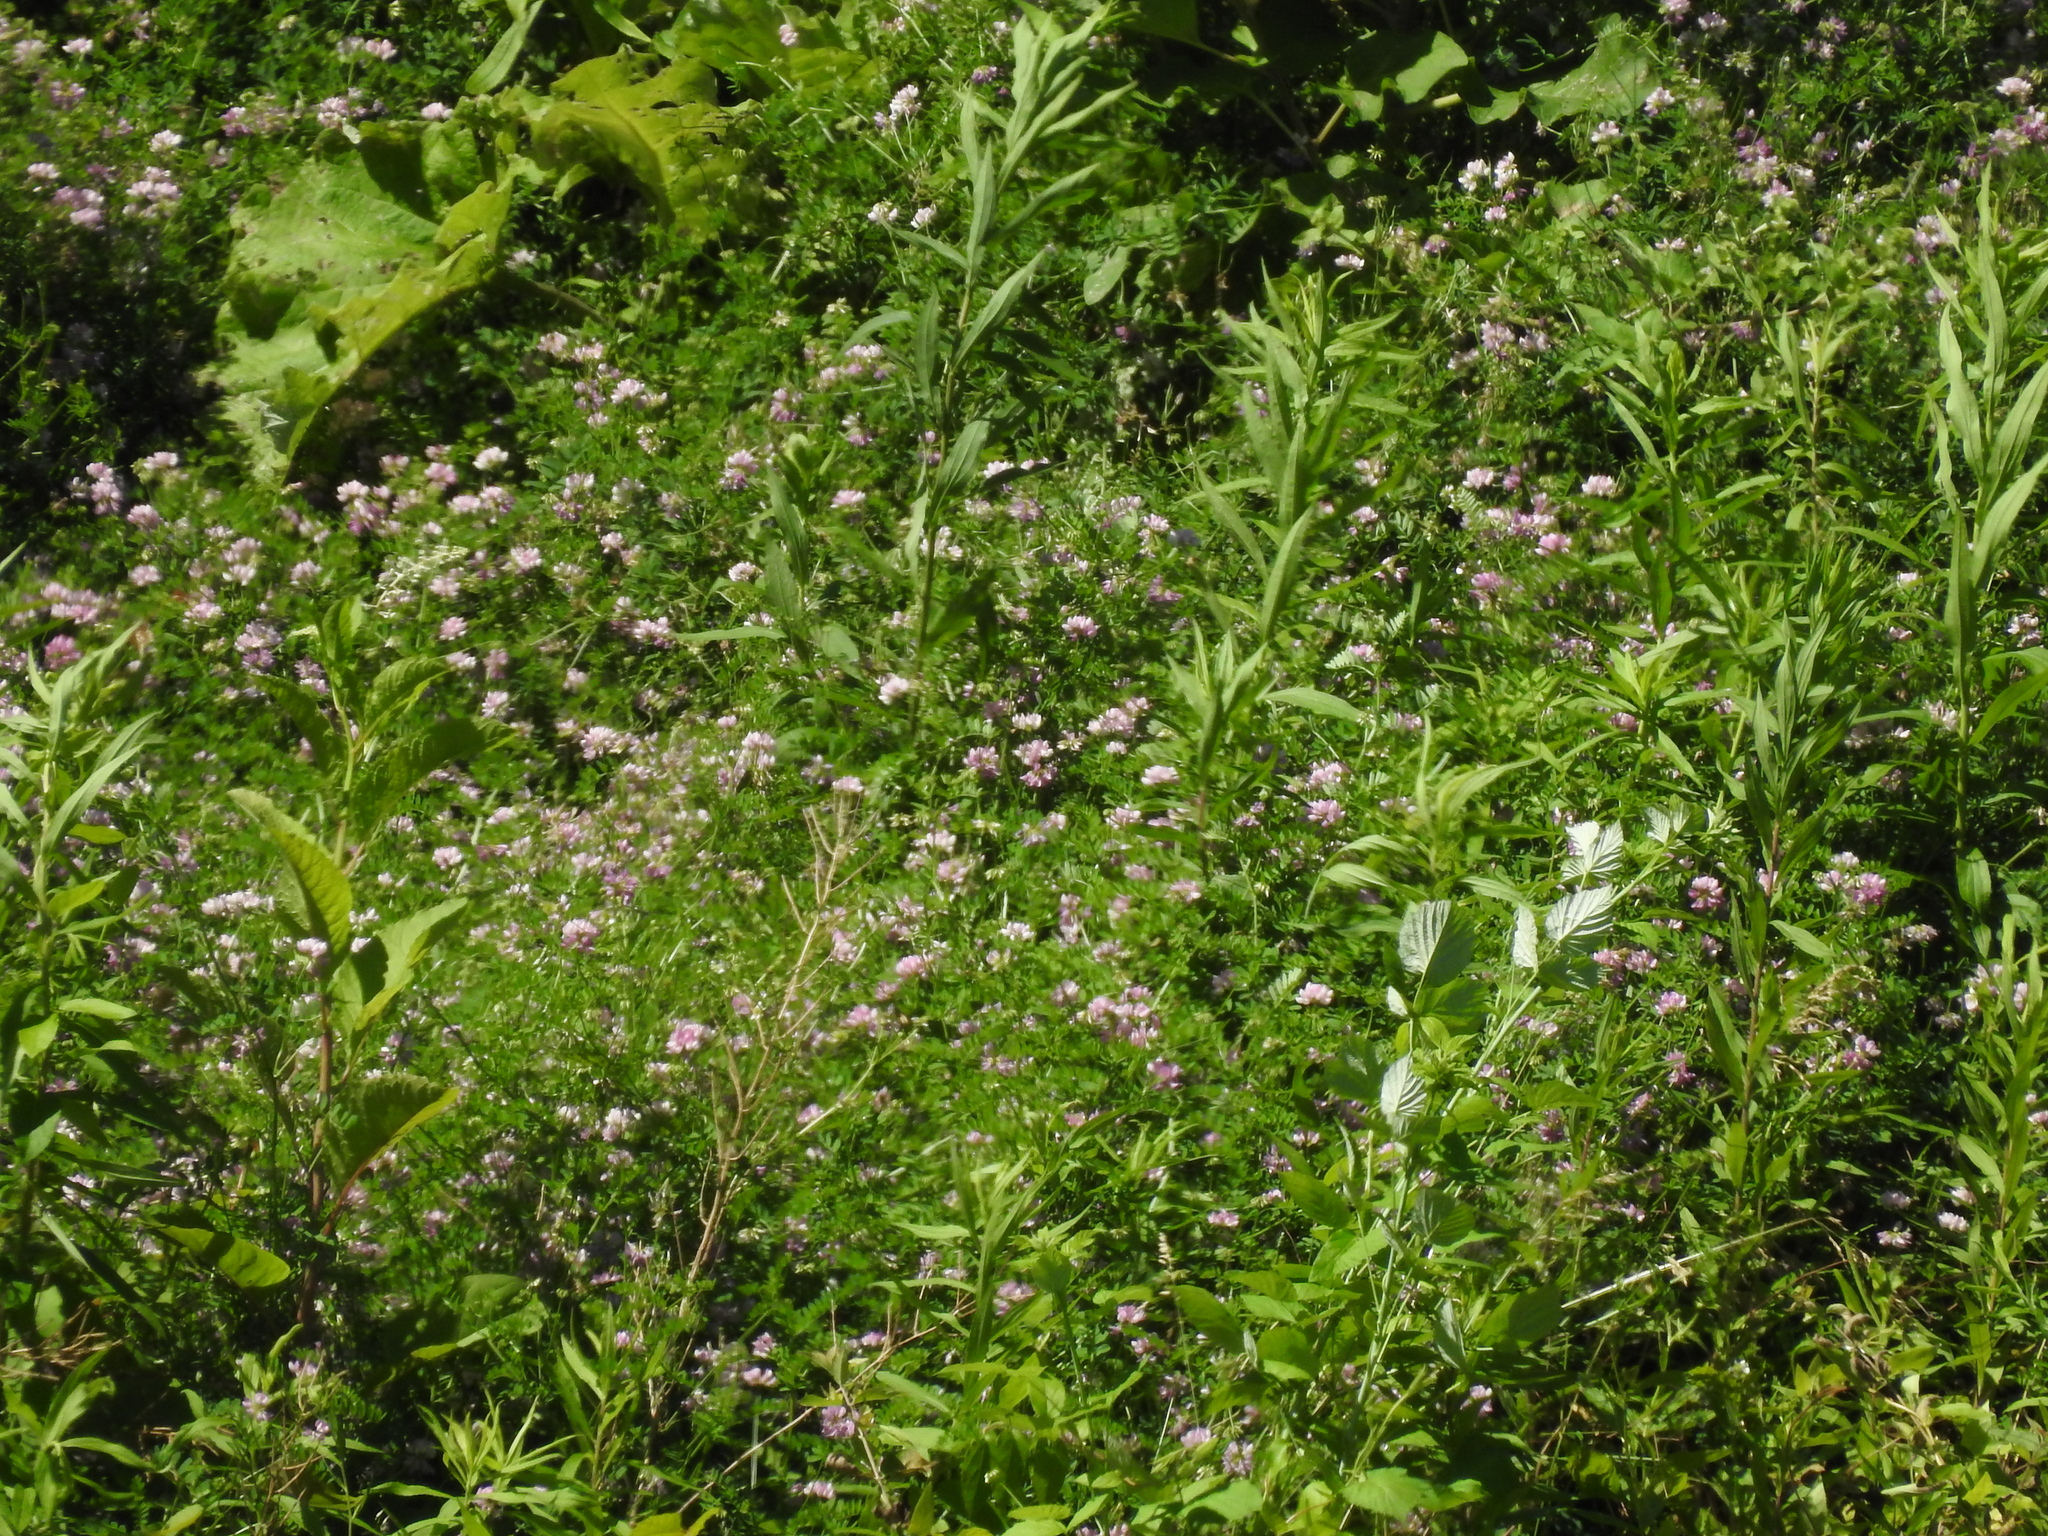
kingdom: Plantae
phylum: Tracheophyta
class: Magnoliopsida
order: Fabales
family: Fabaceae
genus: Coronilla
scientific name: Coronilla varia
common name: Crownvetch
